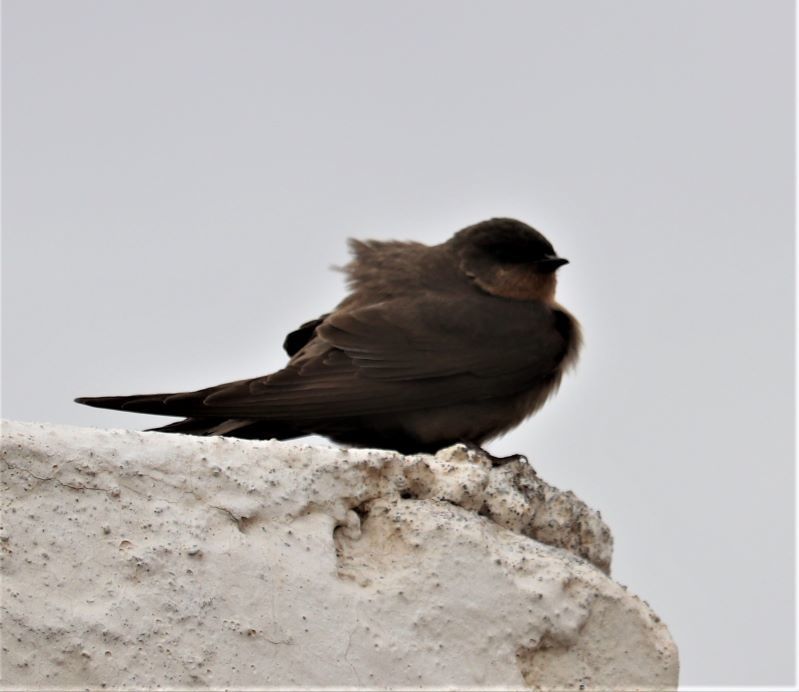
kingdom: Animalia
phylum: Chordata
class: Aves
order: Passeriformes
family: Hirundinidae
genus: Ptyonoprogne
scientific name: Ptyonoprogne fuligula
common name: Rock martin
